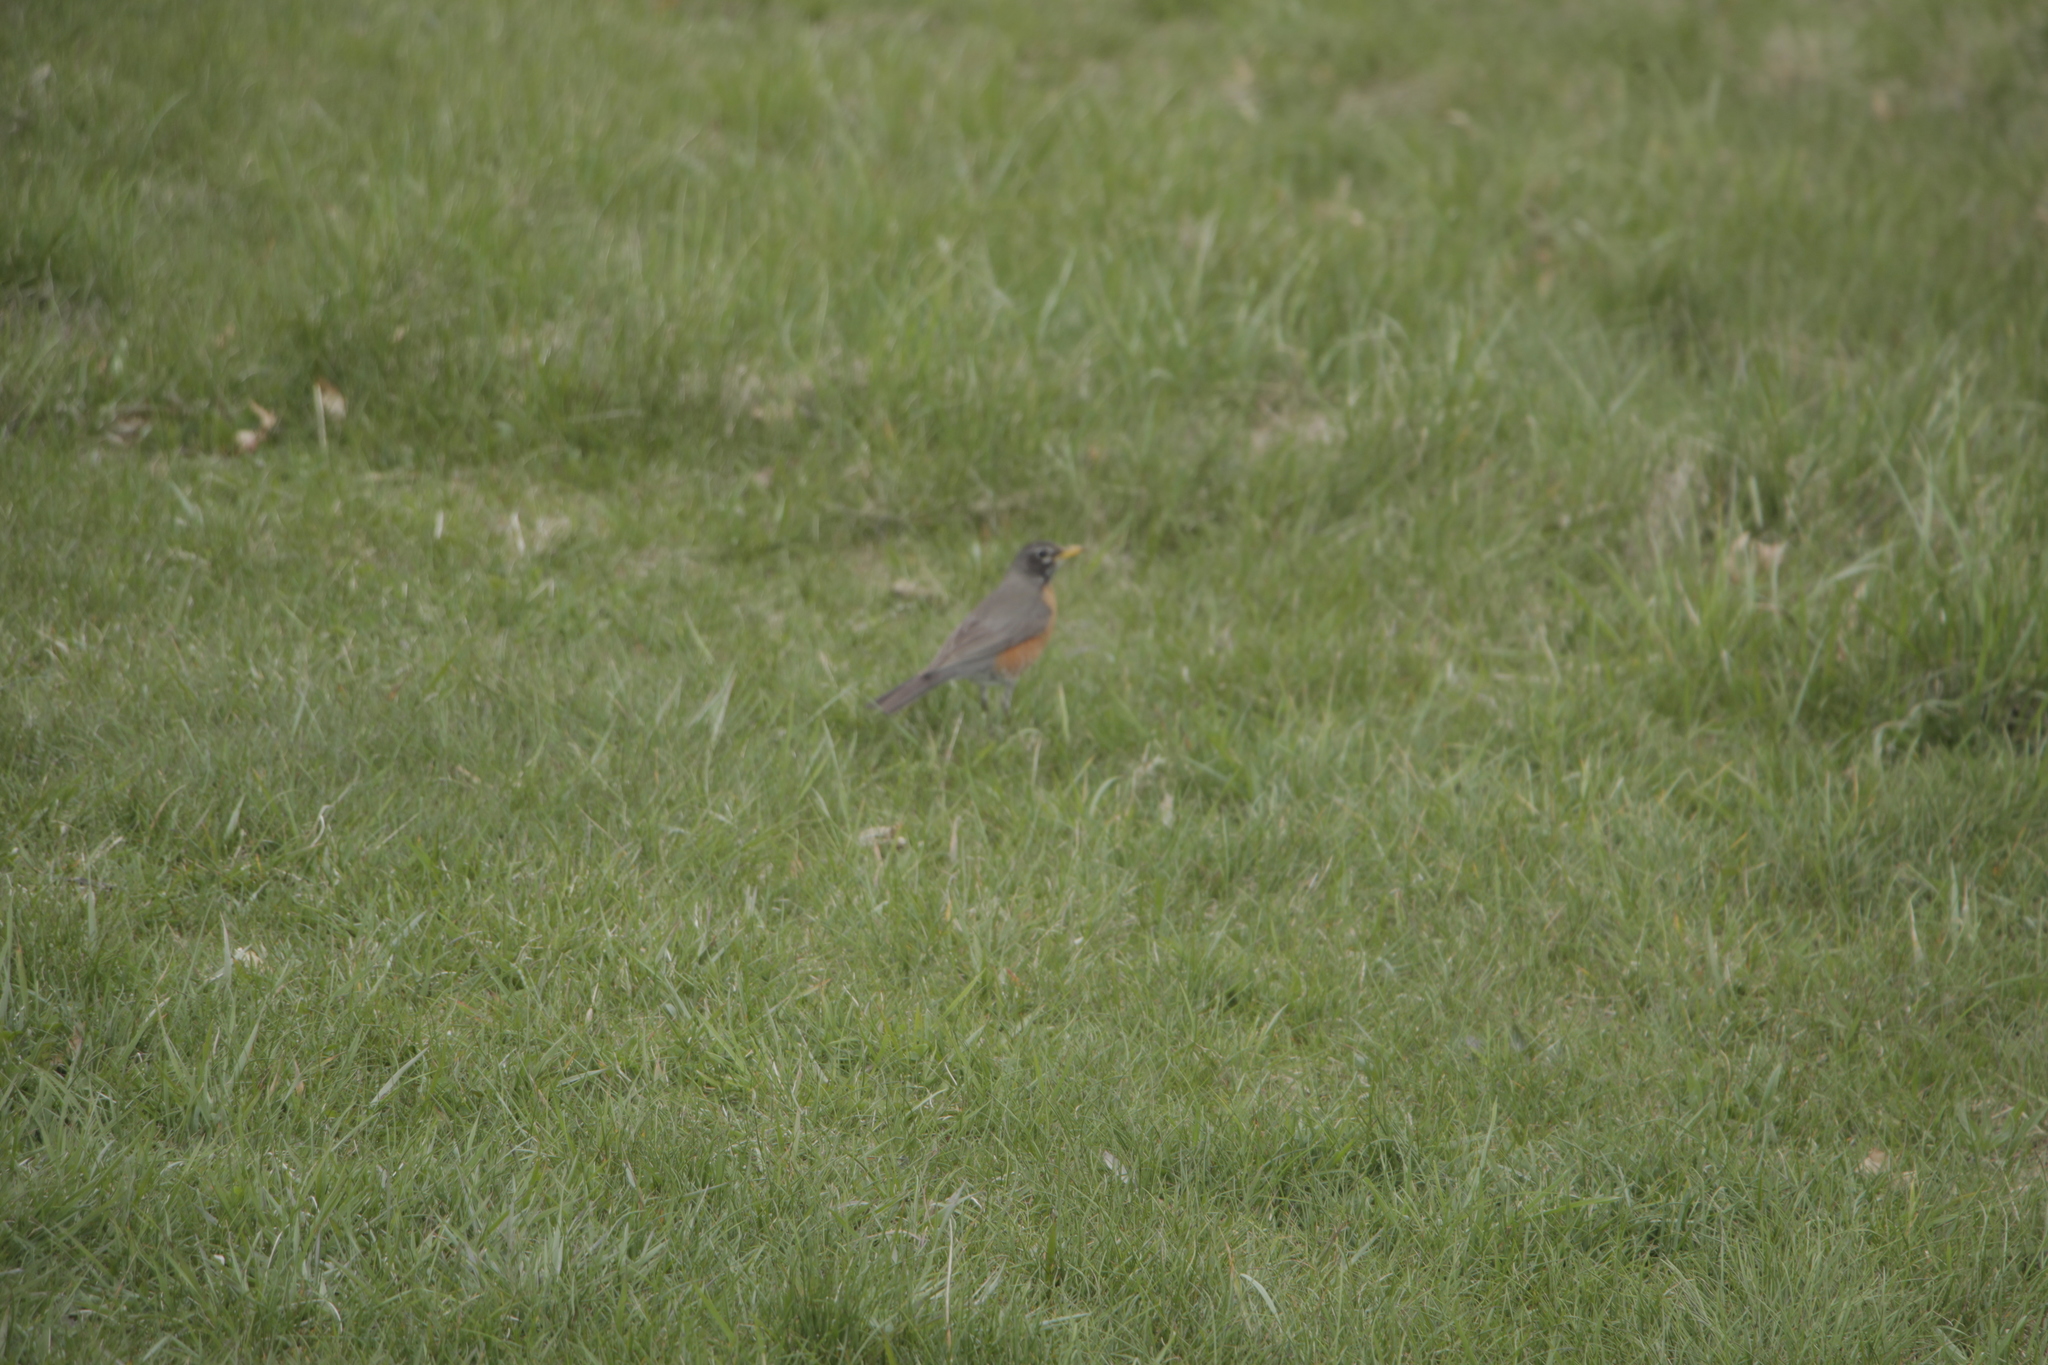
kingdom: Animalia
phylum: Chordata
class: Aves
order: Passeriformes
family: Turdidae
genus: Turdus
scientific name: Turdus migratorius
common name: American robin
